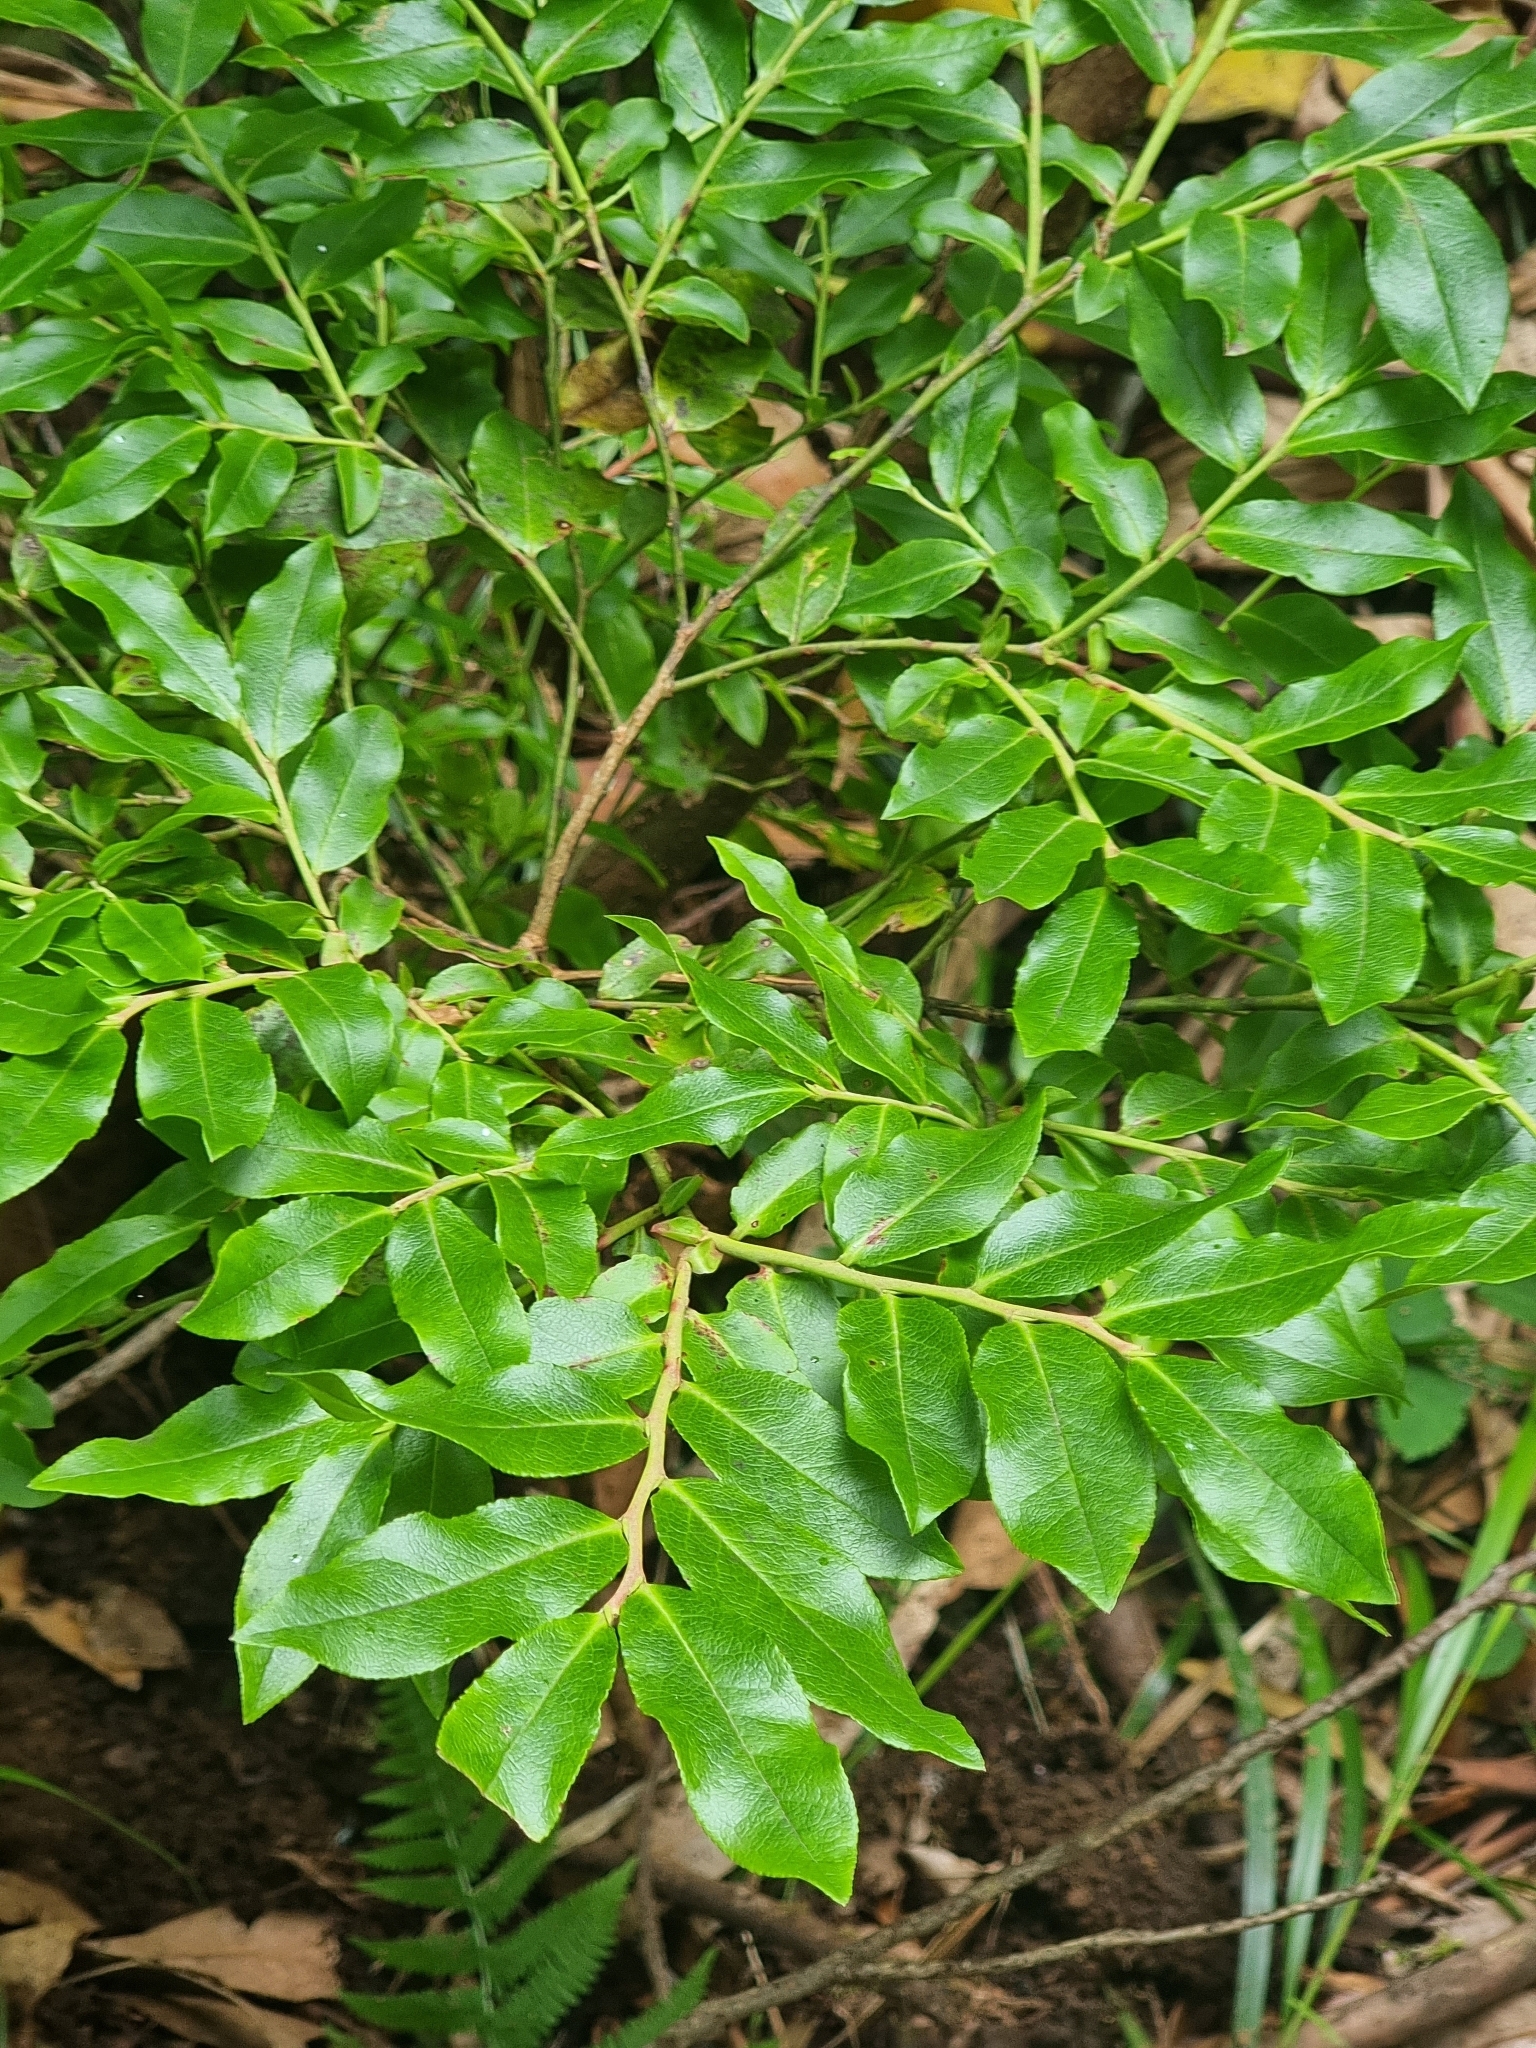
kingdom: Plantae
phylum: Tracheophyta
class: Magnoliopsida
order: Ericales
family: Ericaceae
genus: Vaccinium
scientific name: Vaccinium padifolium
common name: Madeiran blueberry
